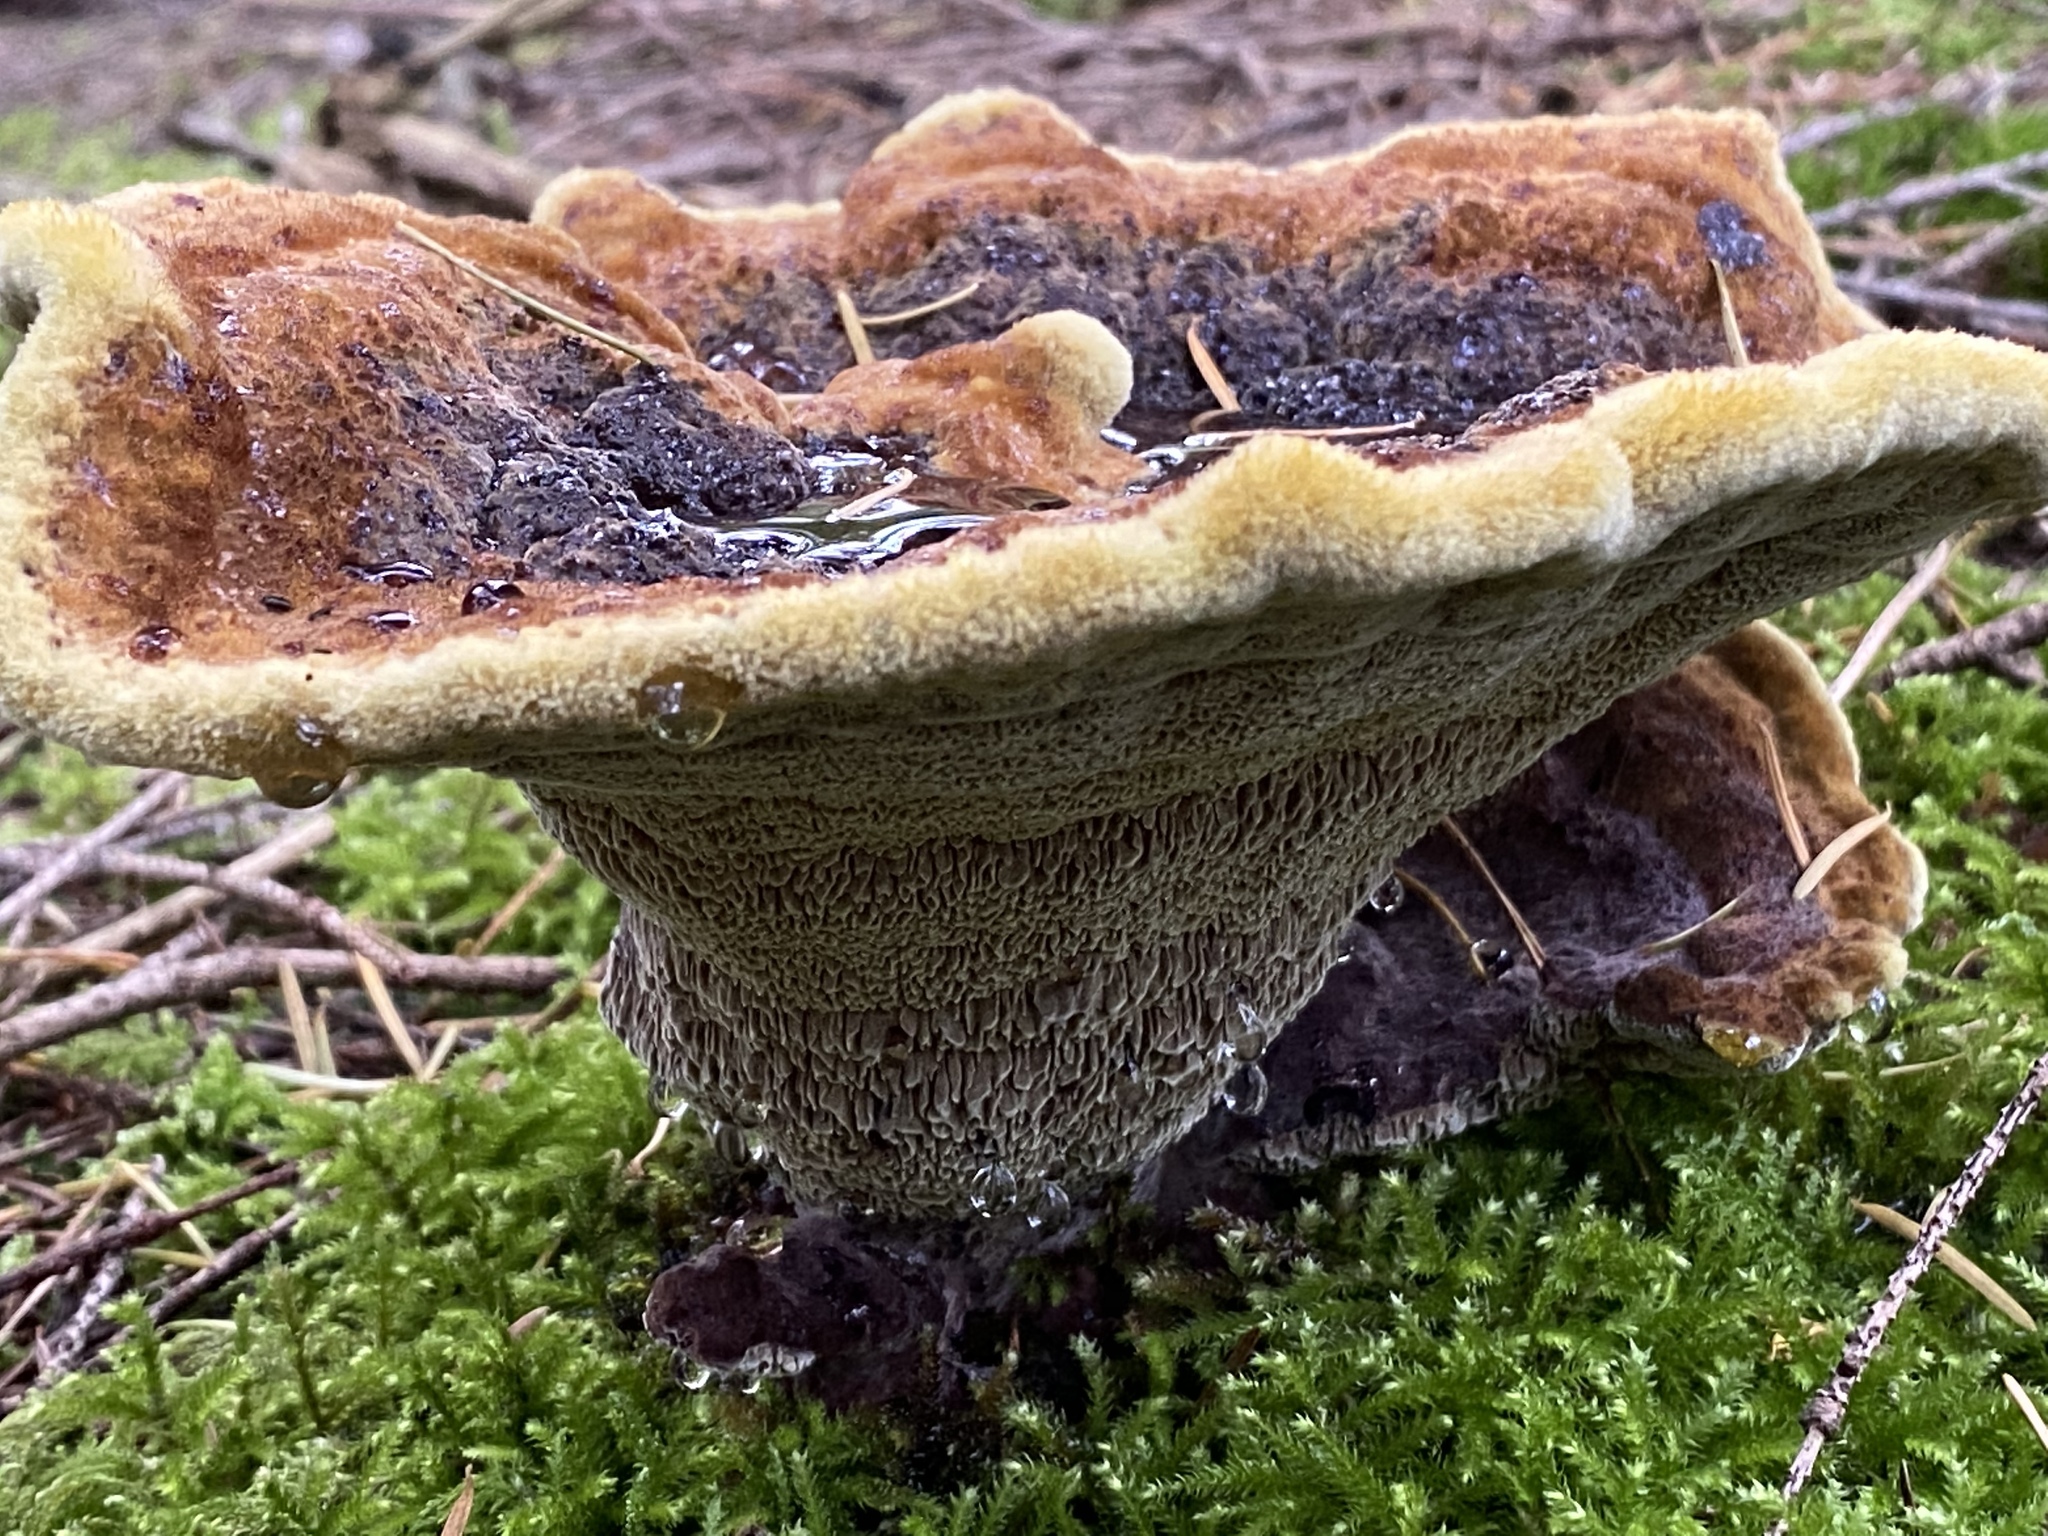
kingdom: Fungi
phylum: Basidiomycota
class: Agaricomycetes
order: Polyporales
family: Laetiporaceae
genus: Phaeolus
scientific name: Phaeolus schweinitzii
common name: Dyer's mazegill
